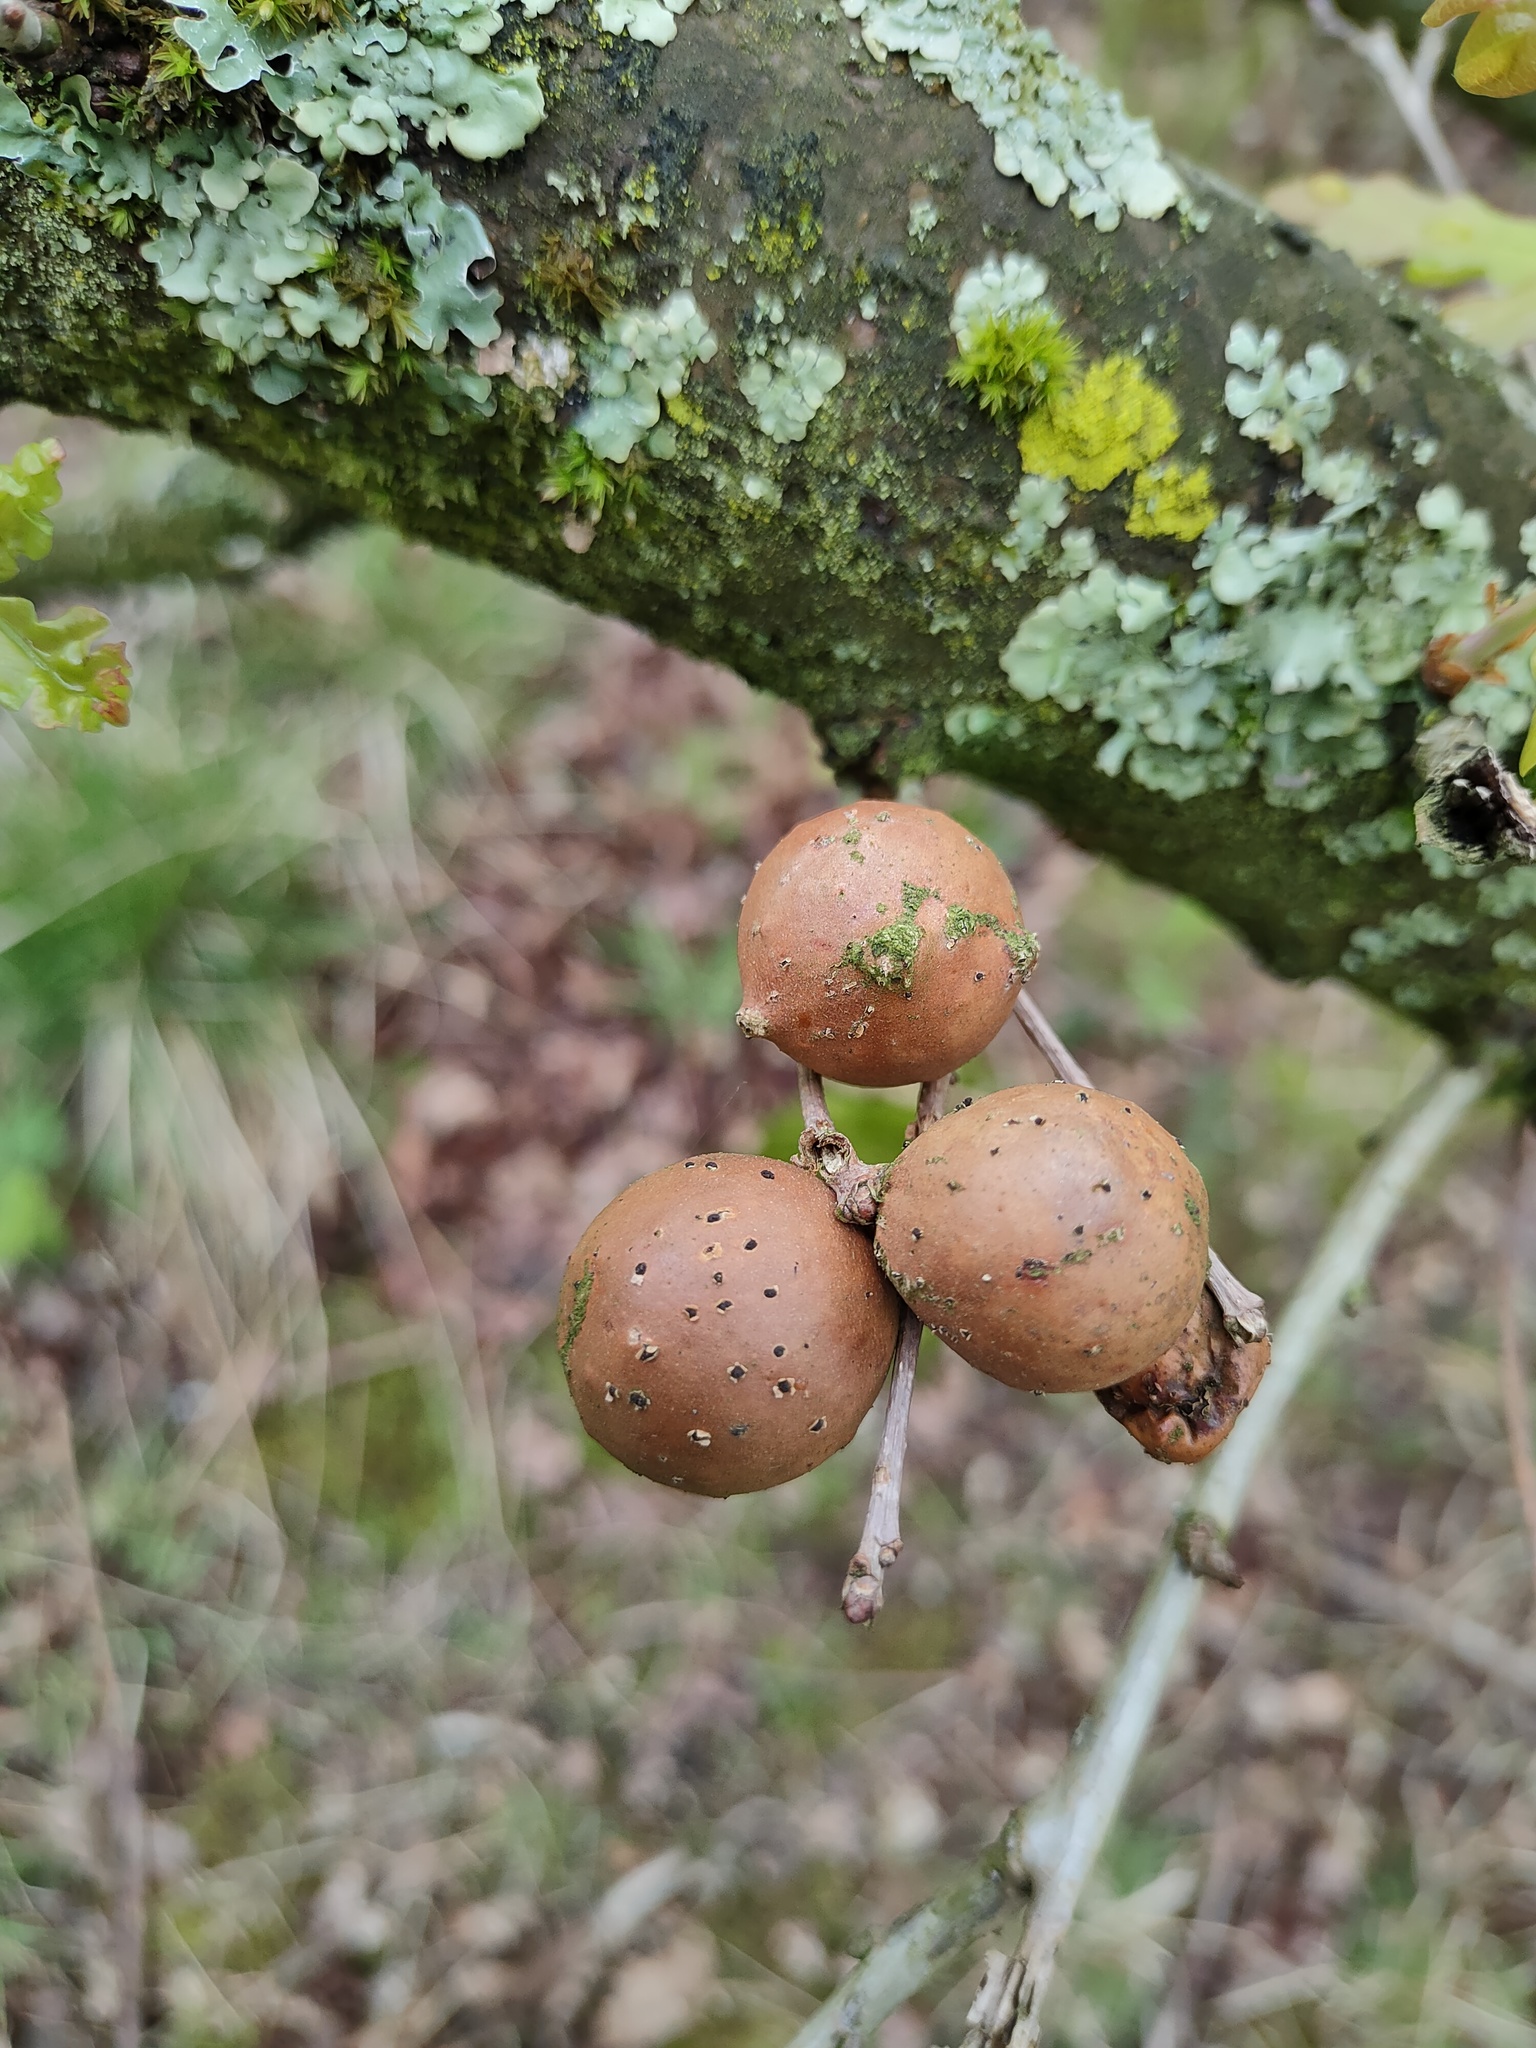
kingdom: Animalia
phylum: Arthropoda
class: Insecta
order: Hymenoptera
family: Cynipidae
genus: Andricus
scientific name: Andricus kollari
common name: Marble gall
